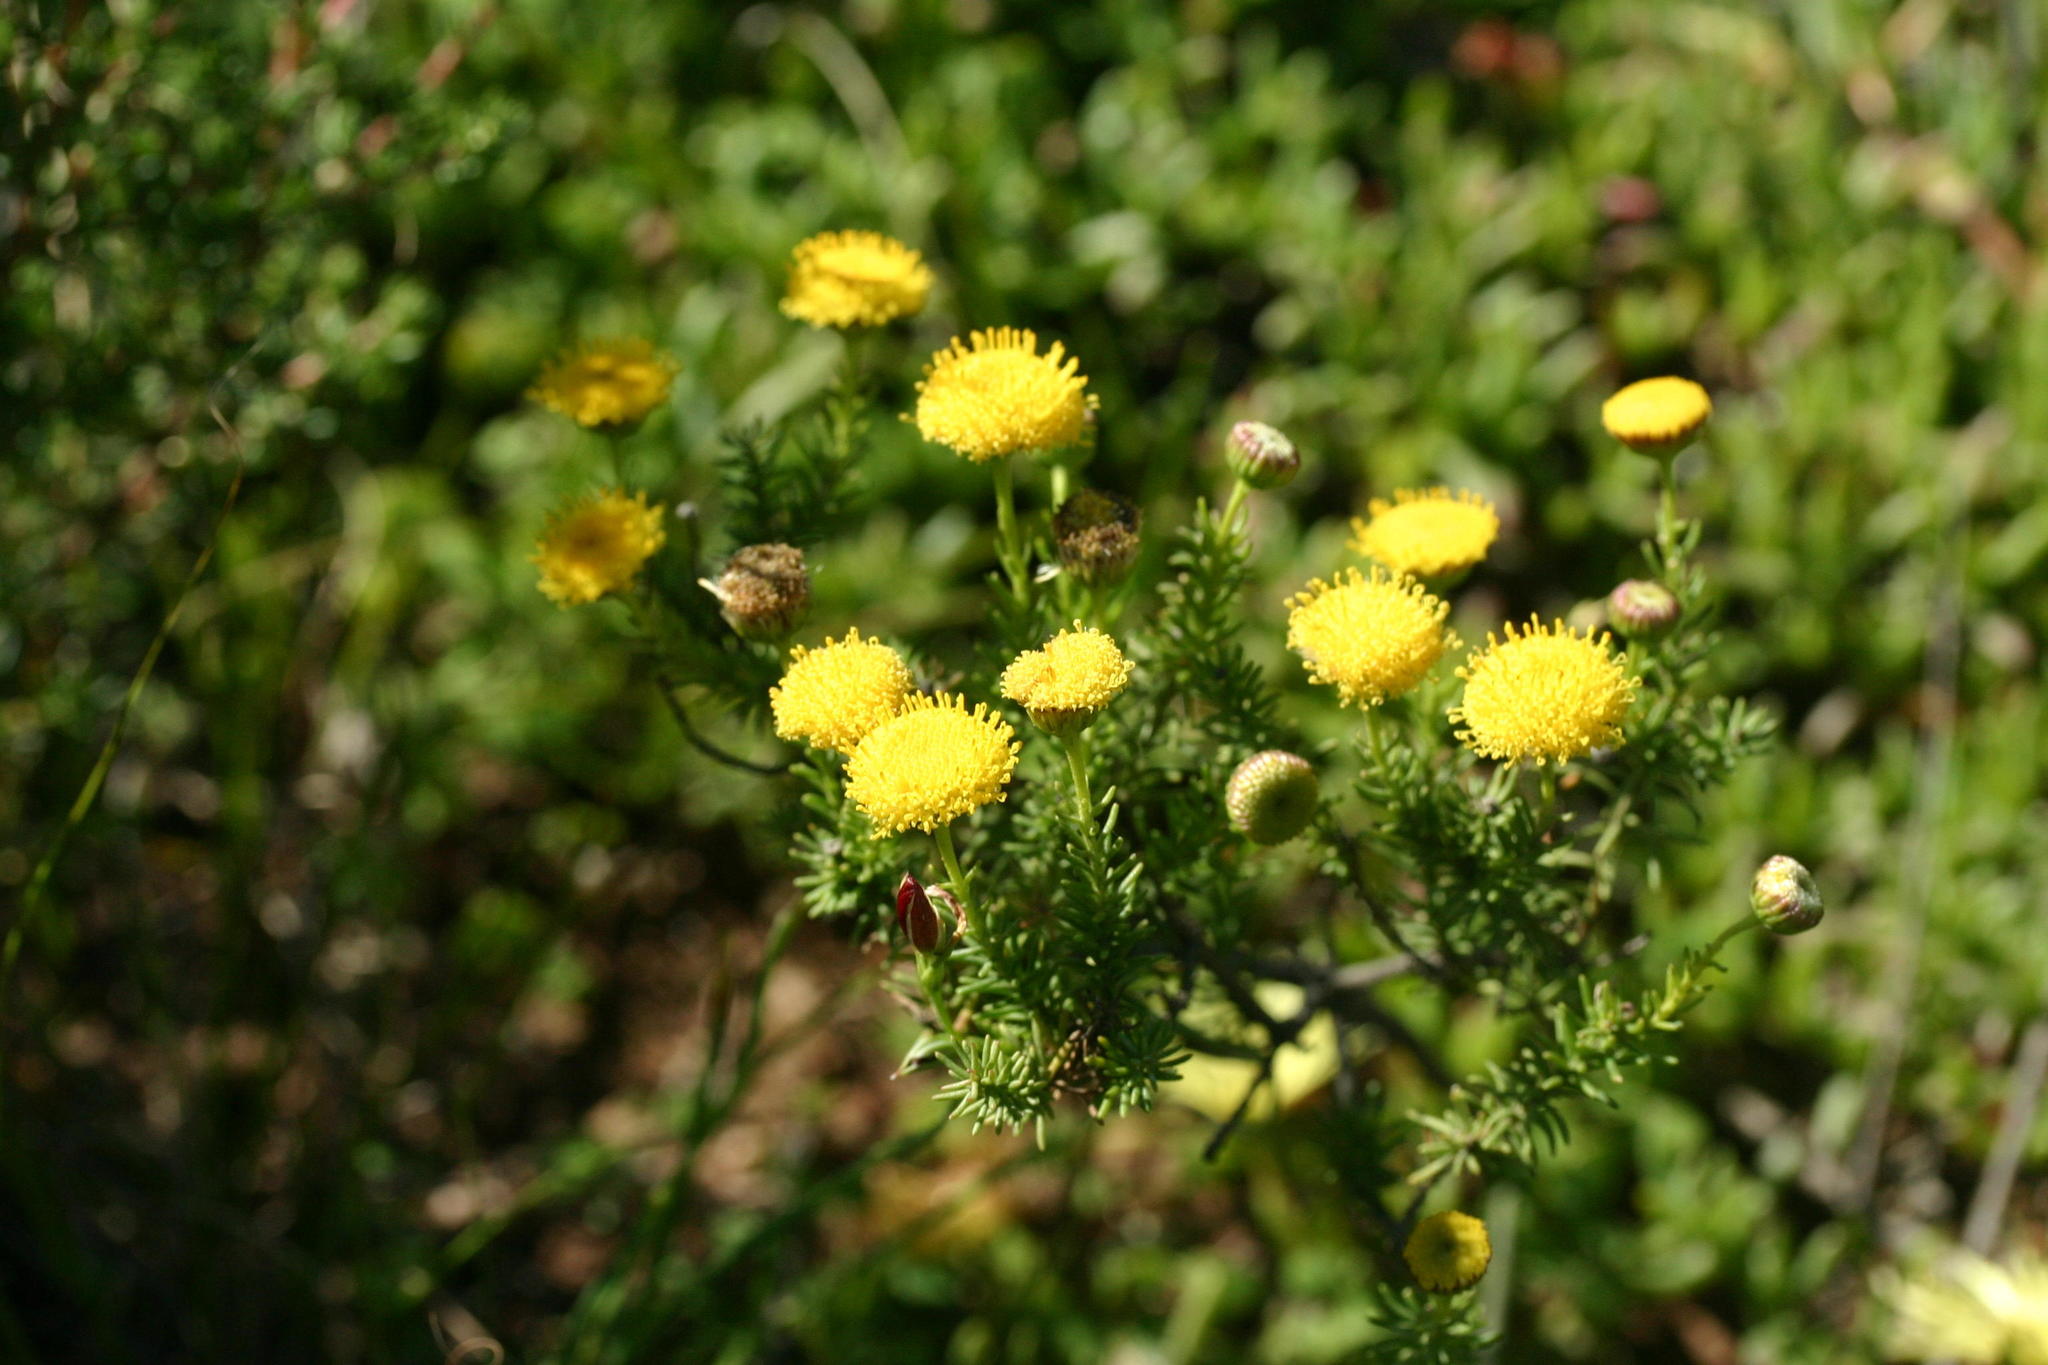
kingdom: Plantae
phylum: Tracheophyta
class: Magnoliopsida
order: Asterales
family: Asteraceae
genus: Chrysocoma
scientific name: Chrysocoma ciliata
